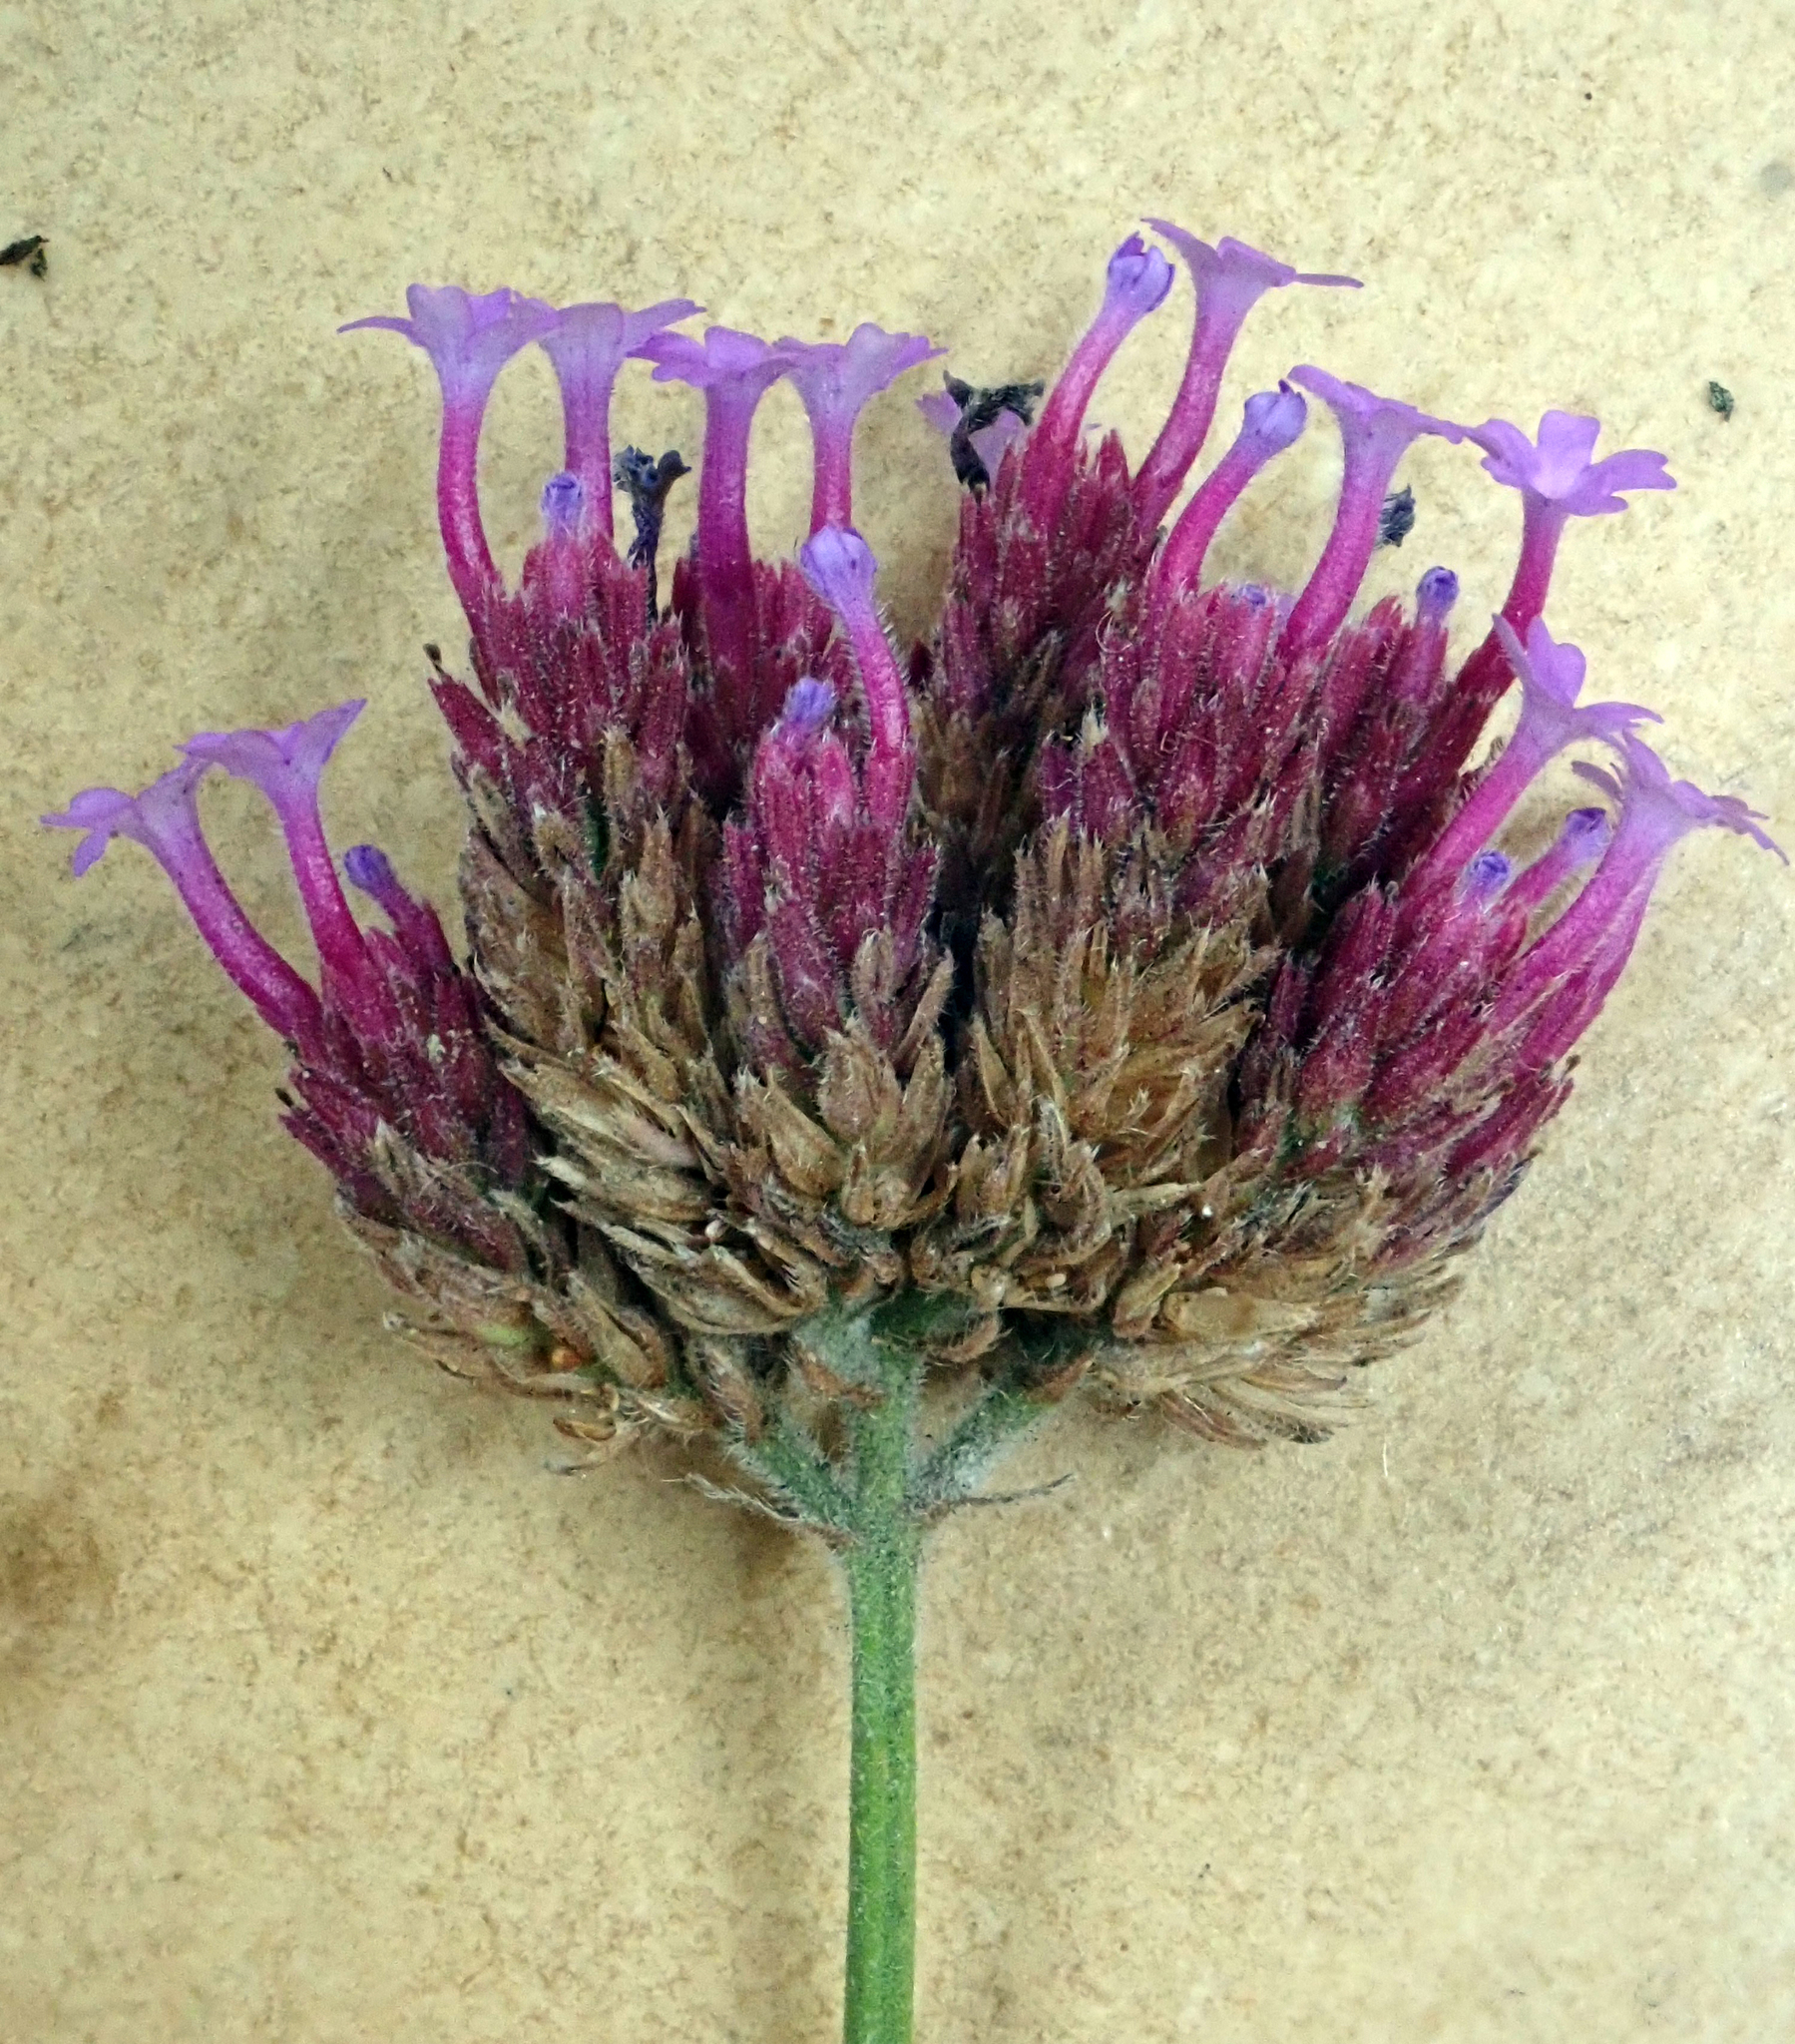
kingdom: Plantae
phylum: Tracheophyta
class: Magnoliopsida
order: Lamiales
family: Verbenaceae
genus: Verbena
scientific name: Verbena bonariensis
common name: Purpletop vervain
